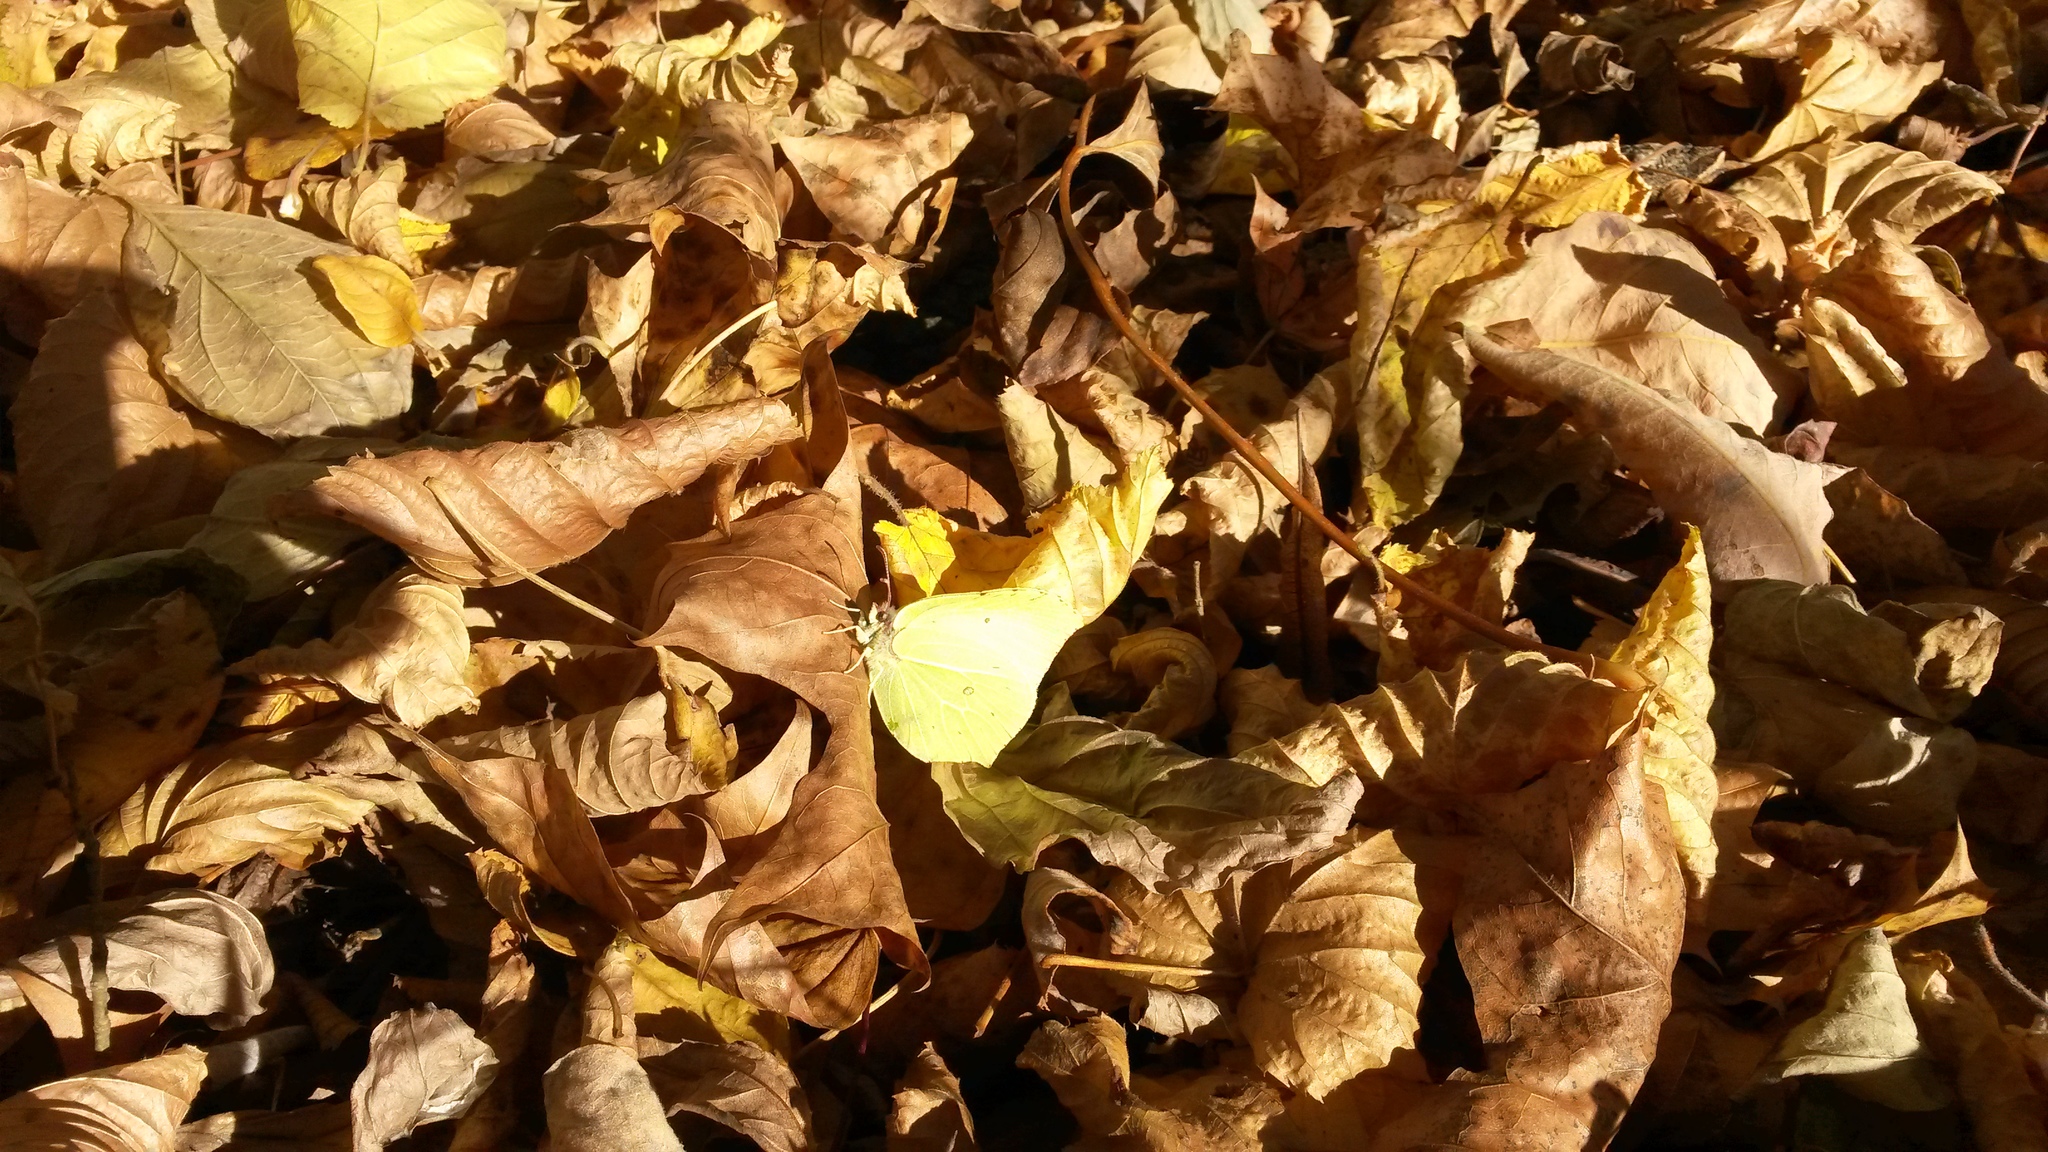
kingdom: Animalia
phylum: Arthropoda
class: Insecta
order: Lepidoptera
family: Pieridae
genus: Gonepteryx
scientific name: Gonepteryx rhamni
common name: Brimstone
